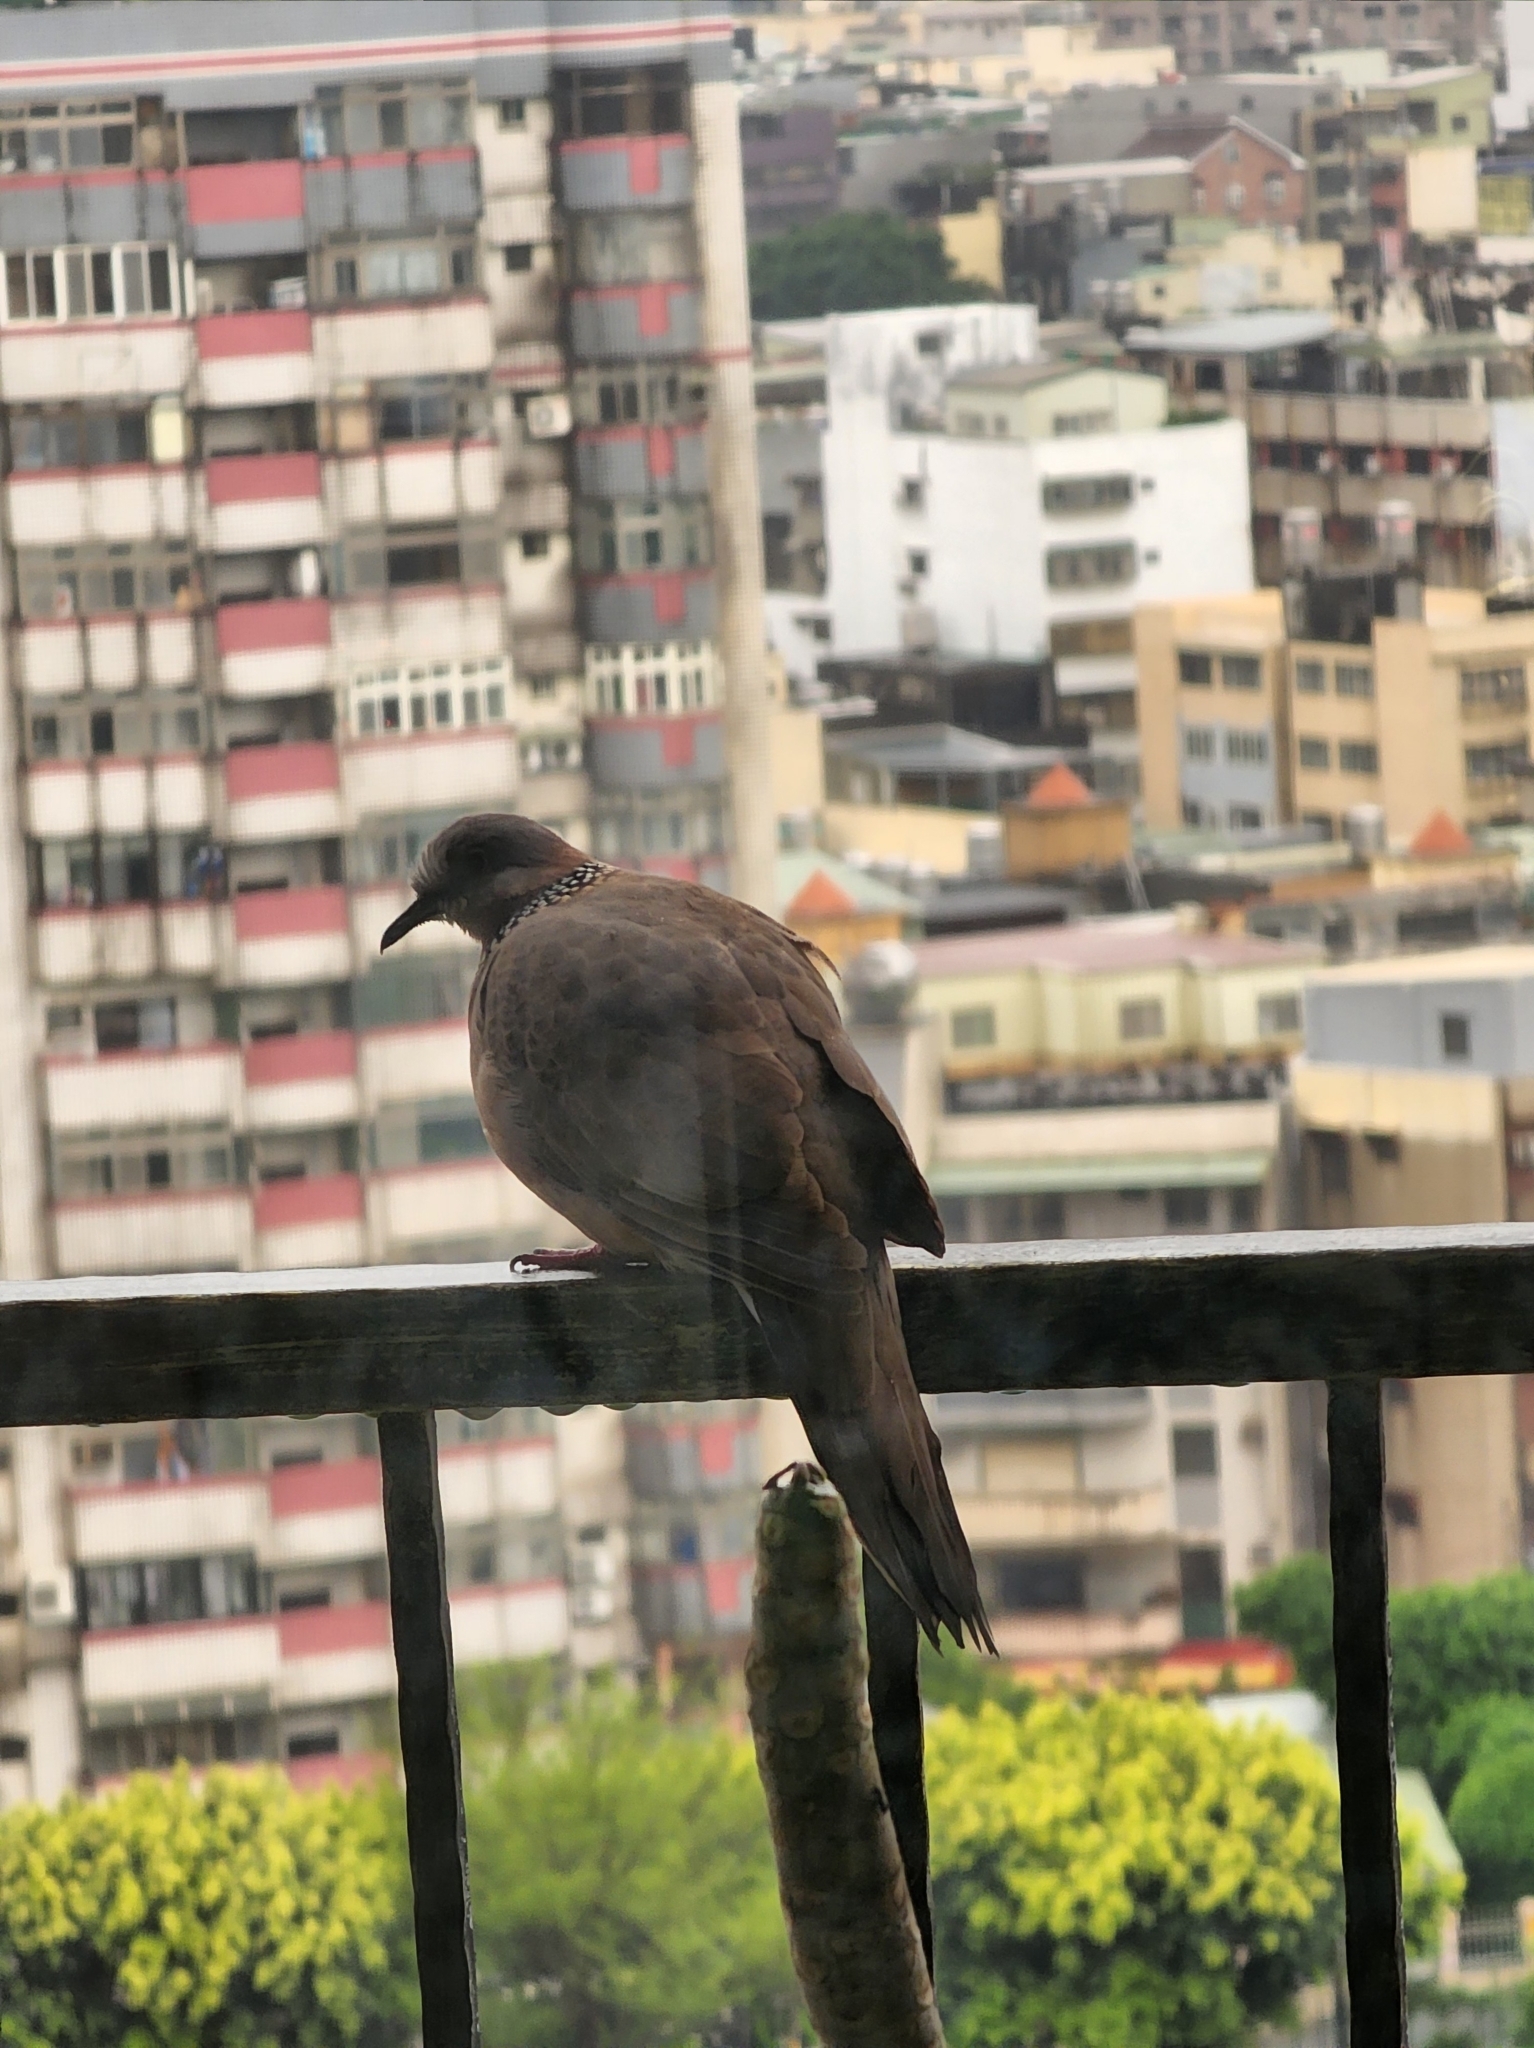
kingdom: Animalia
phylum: Chordata
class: Aves
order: Columbiformes
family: Columbidae
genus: Spilopelia
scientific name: Spilopelia chinensis
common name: Spotted dove
